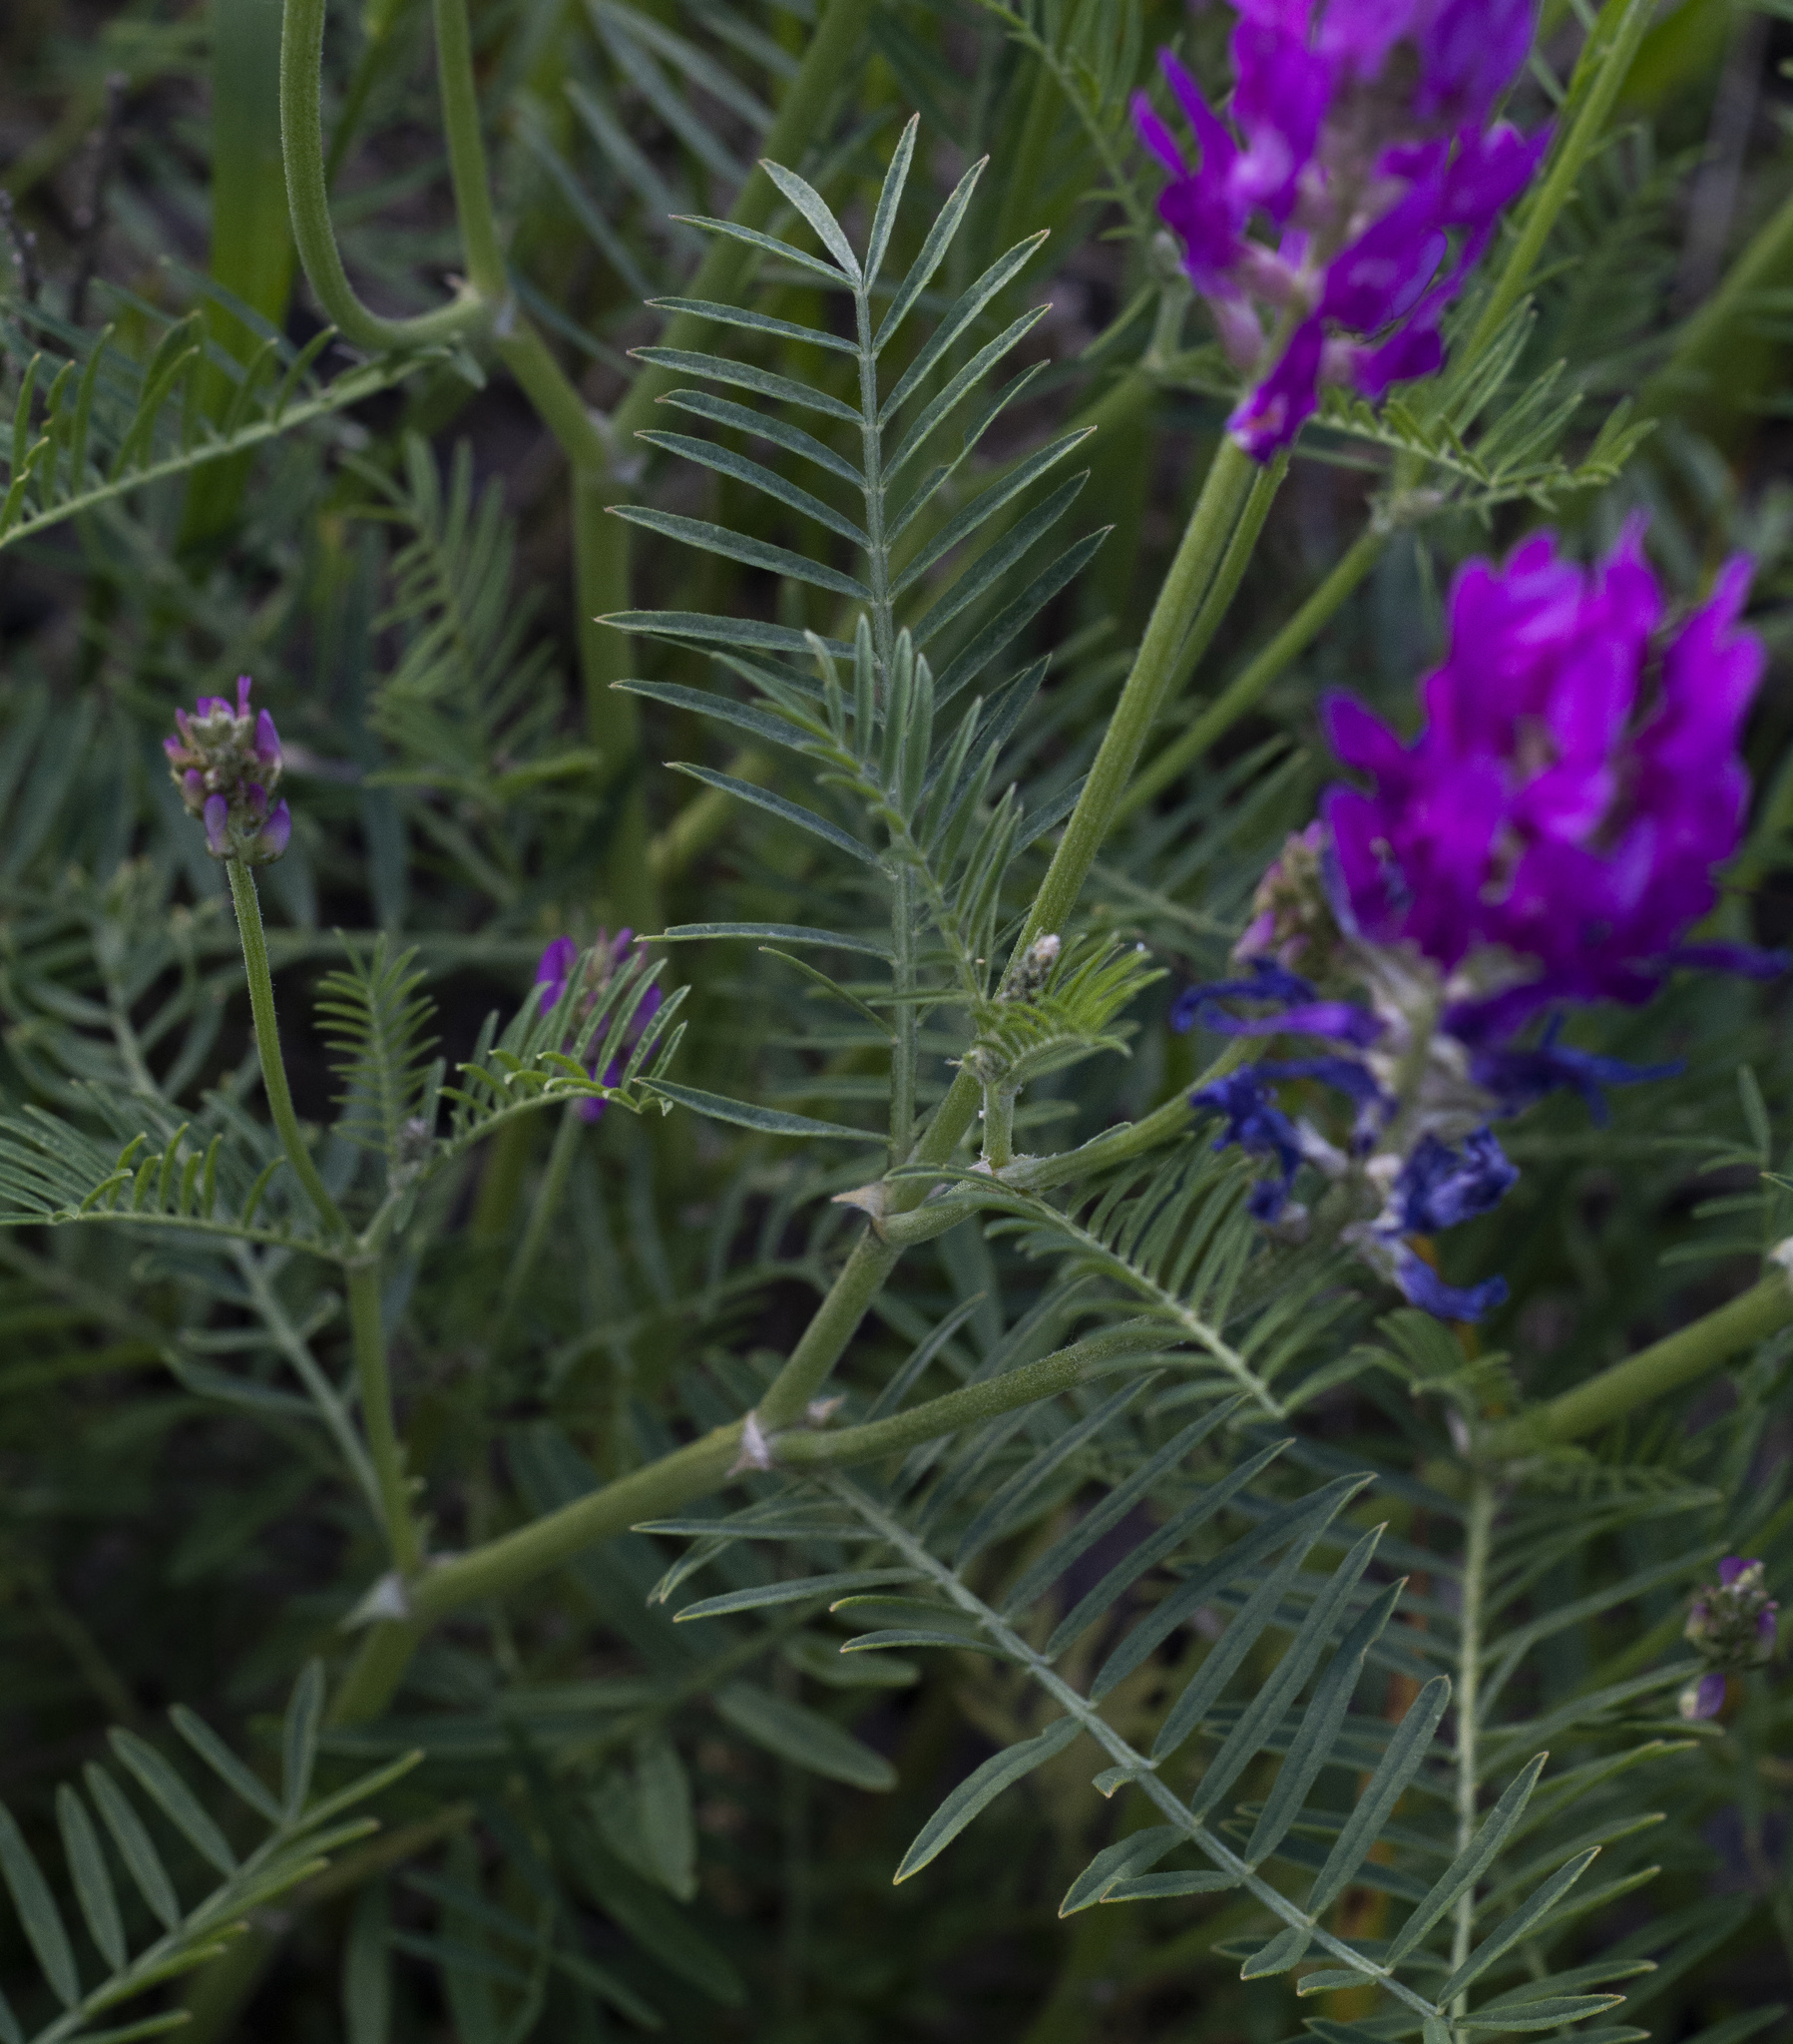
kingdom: Plantae
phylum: Tracheophyta
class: Magnoliopsida
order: Fabales
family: Fabaceae
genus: Astragalus
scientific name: Astragalus onobrychis
